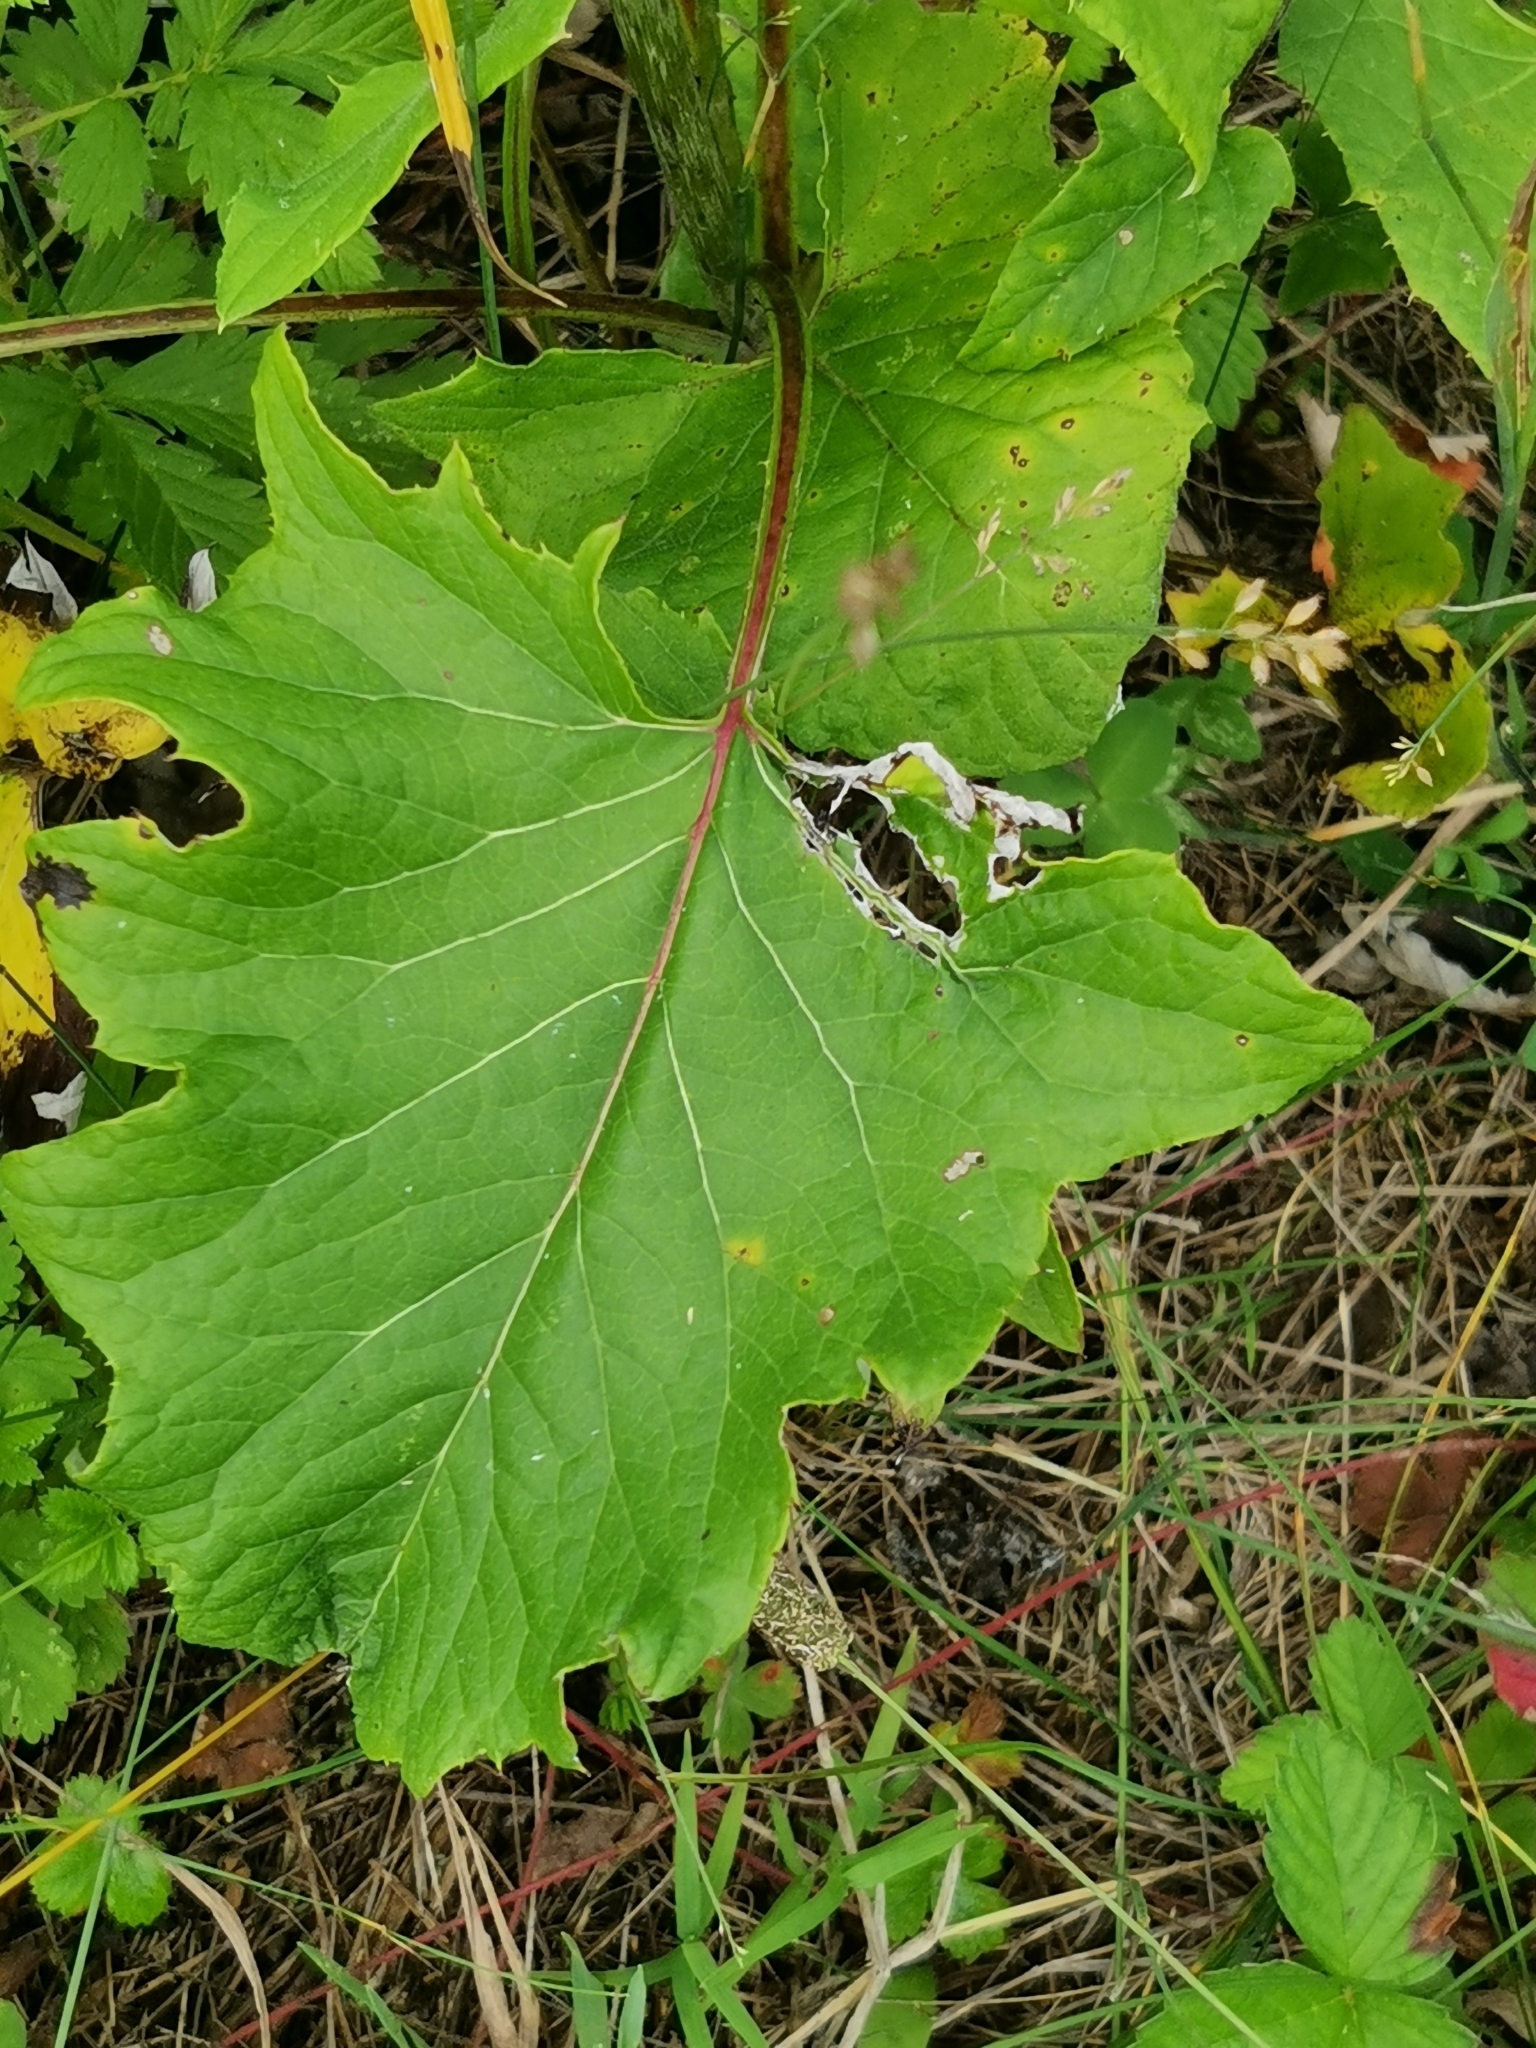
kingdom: Plantae
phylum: Tracheophyta
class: Magnoliopsida
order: Asterales
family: Asteraceae
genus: Synurus
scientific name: Synurus deltoides
